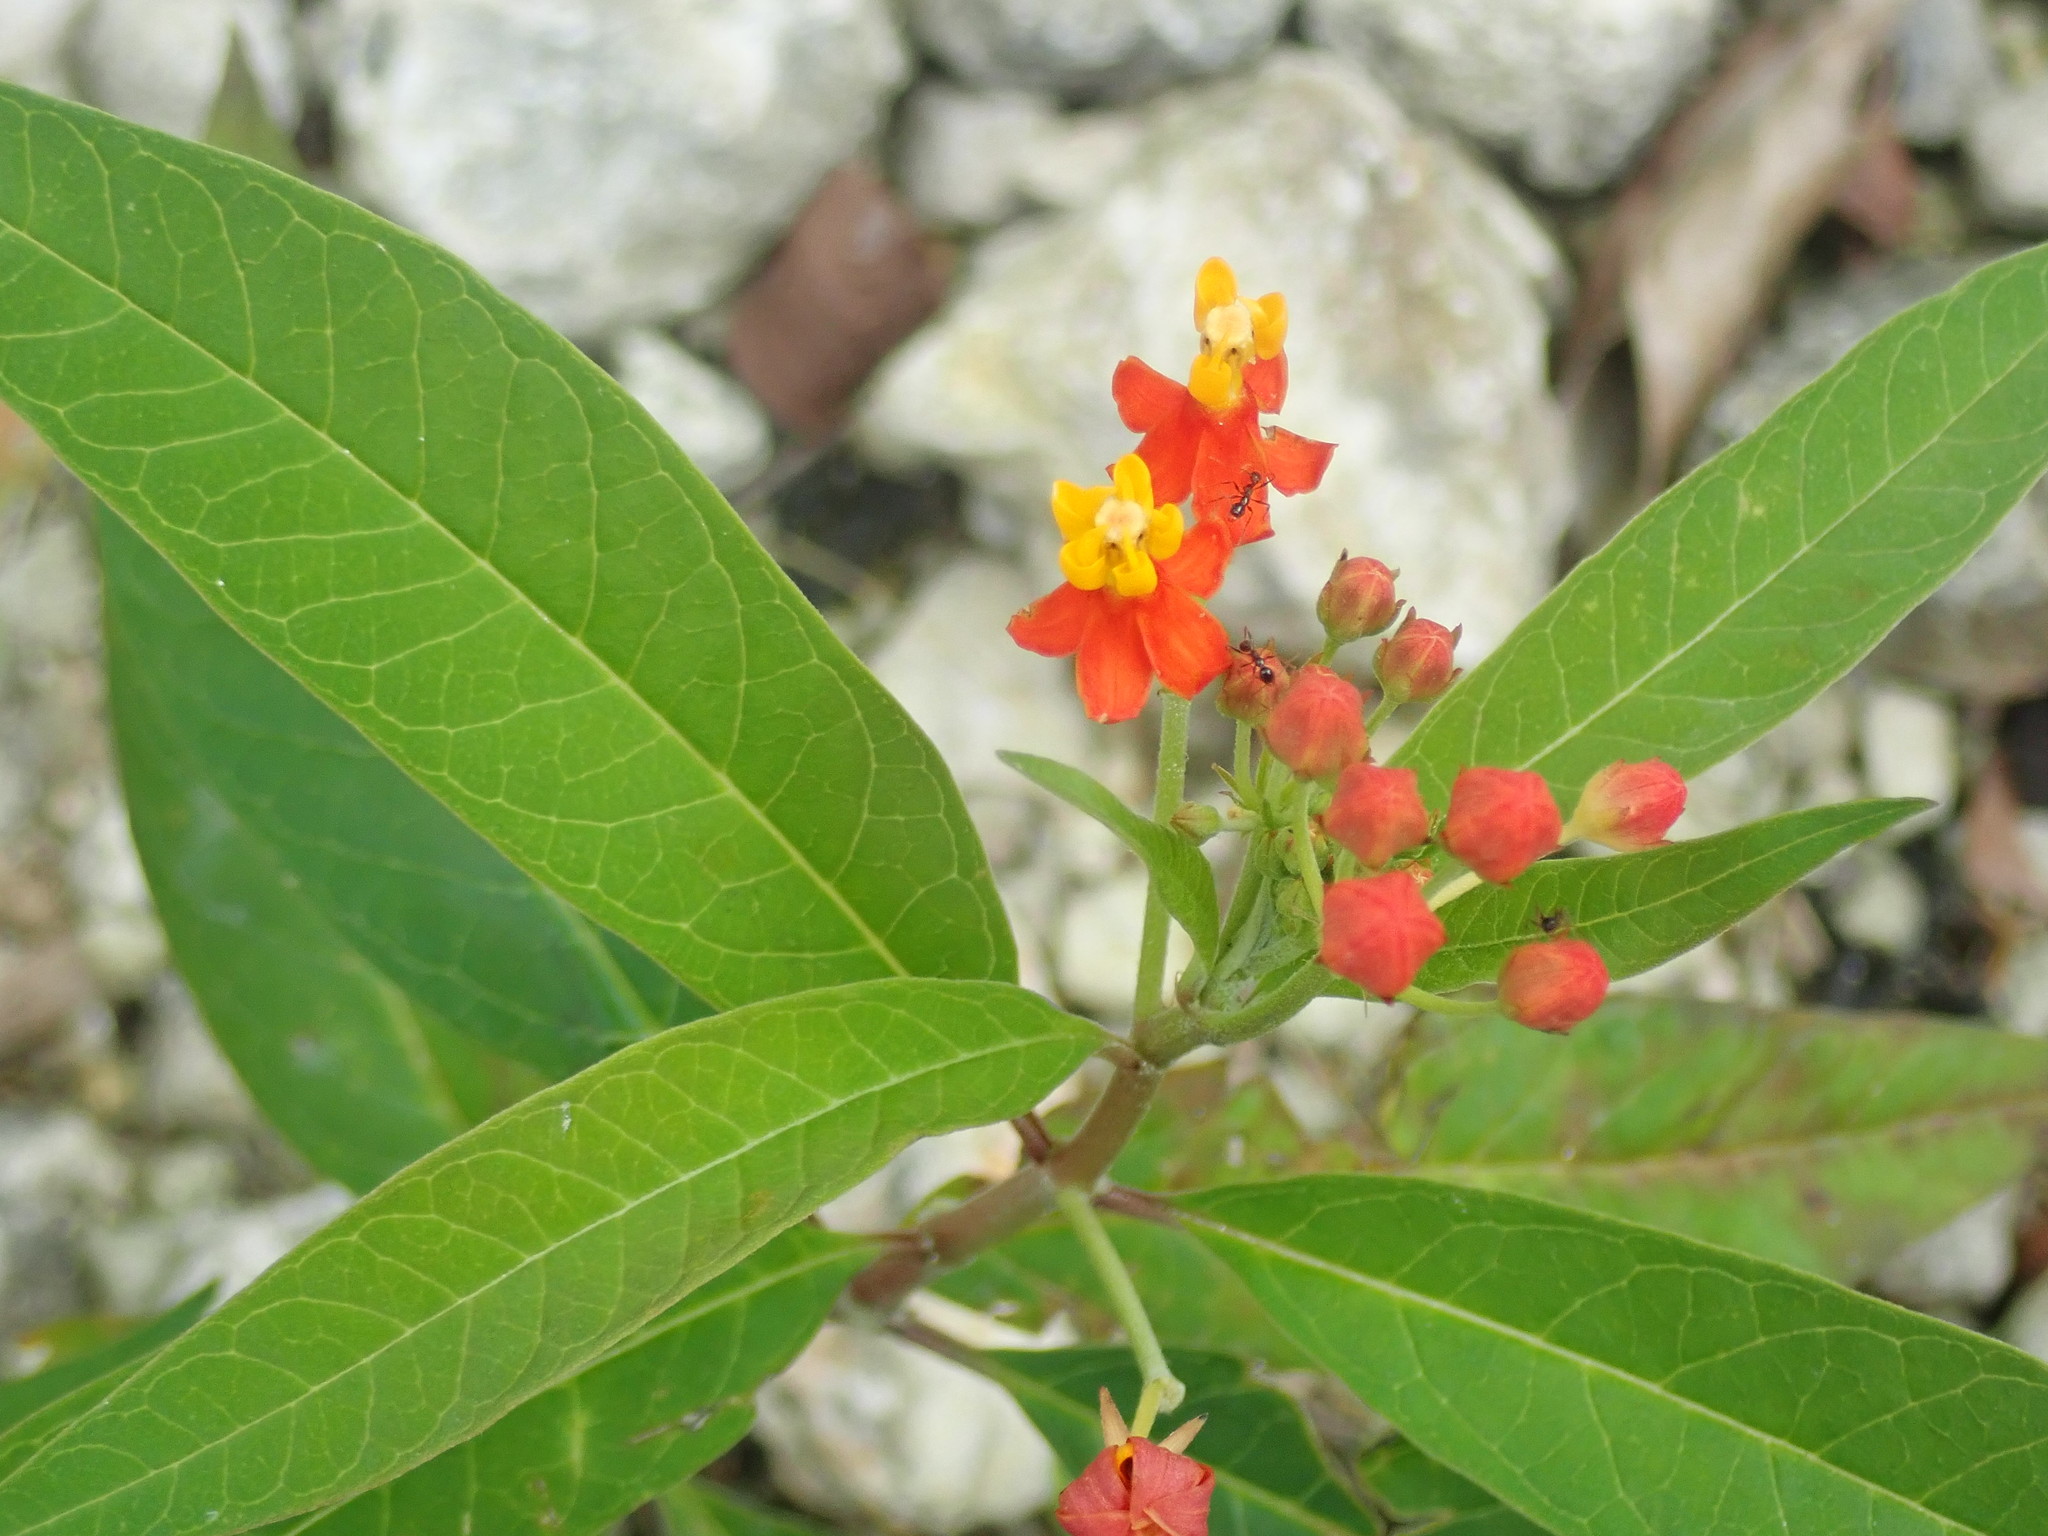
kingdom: Plantae
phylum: Tracheophyta
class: Magnoliopsida
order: Gentianales
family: Apocynaceae
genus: Asclepias
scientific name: Asclepias curassavica
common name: Bloodflower
